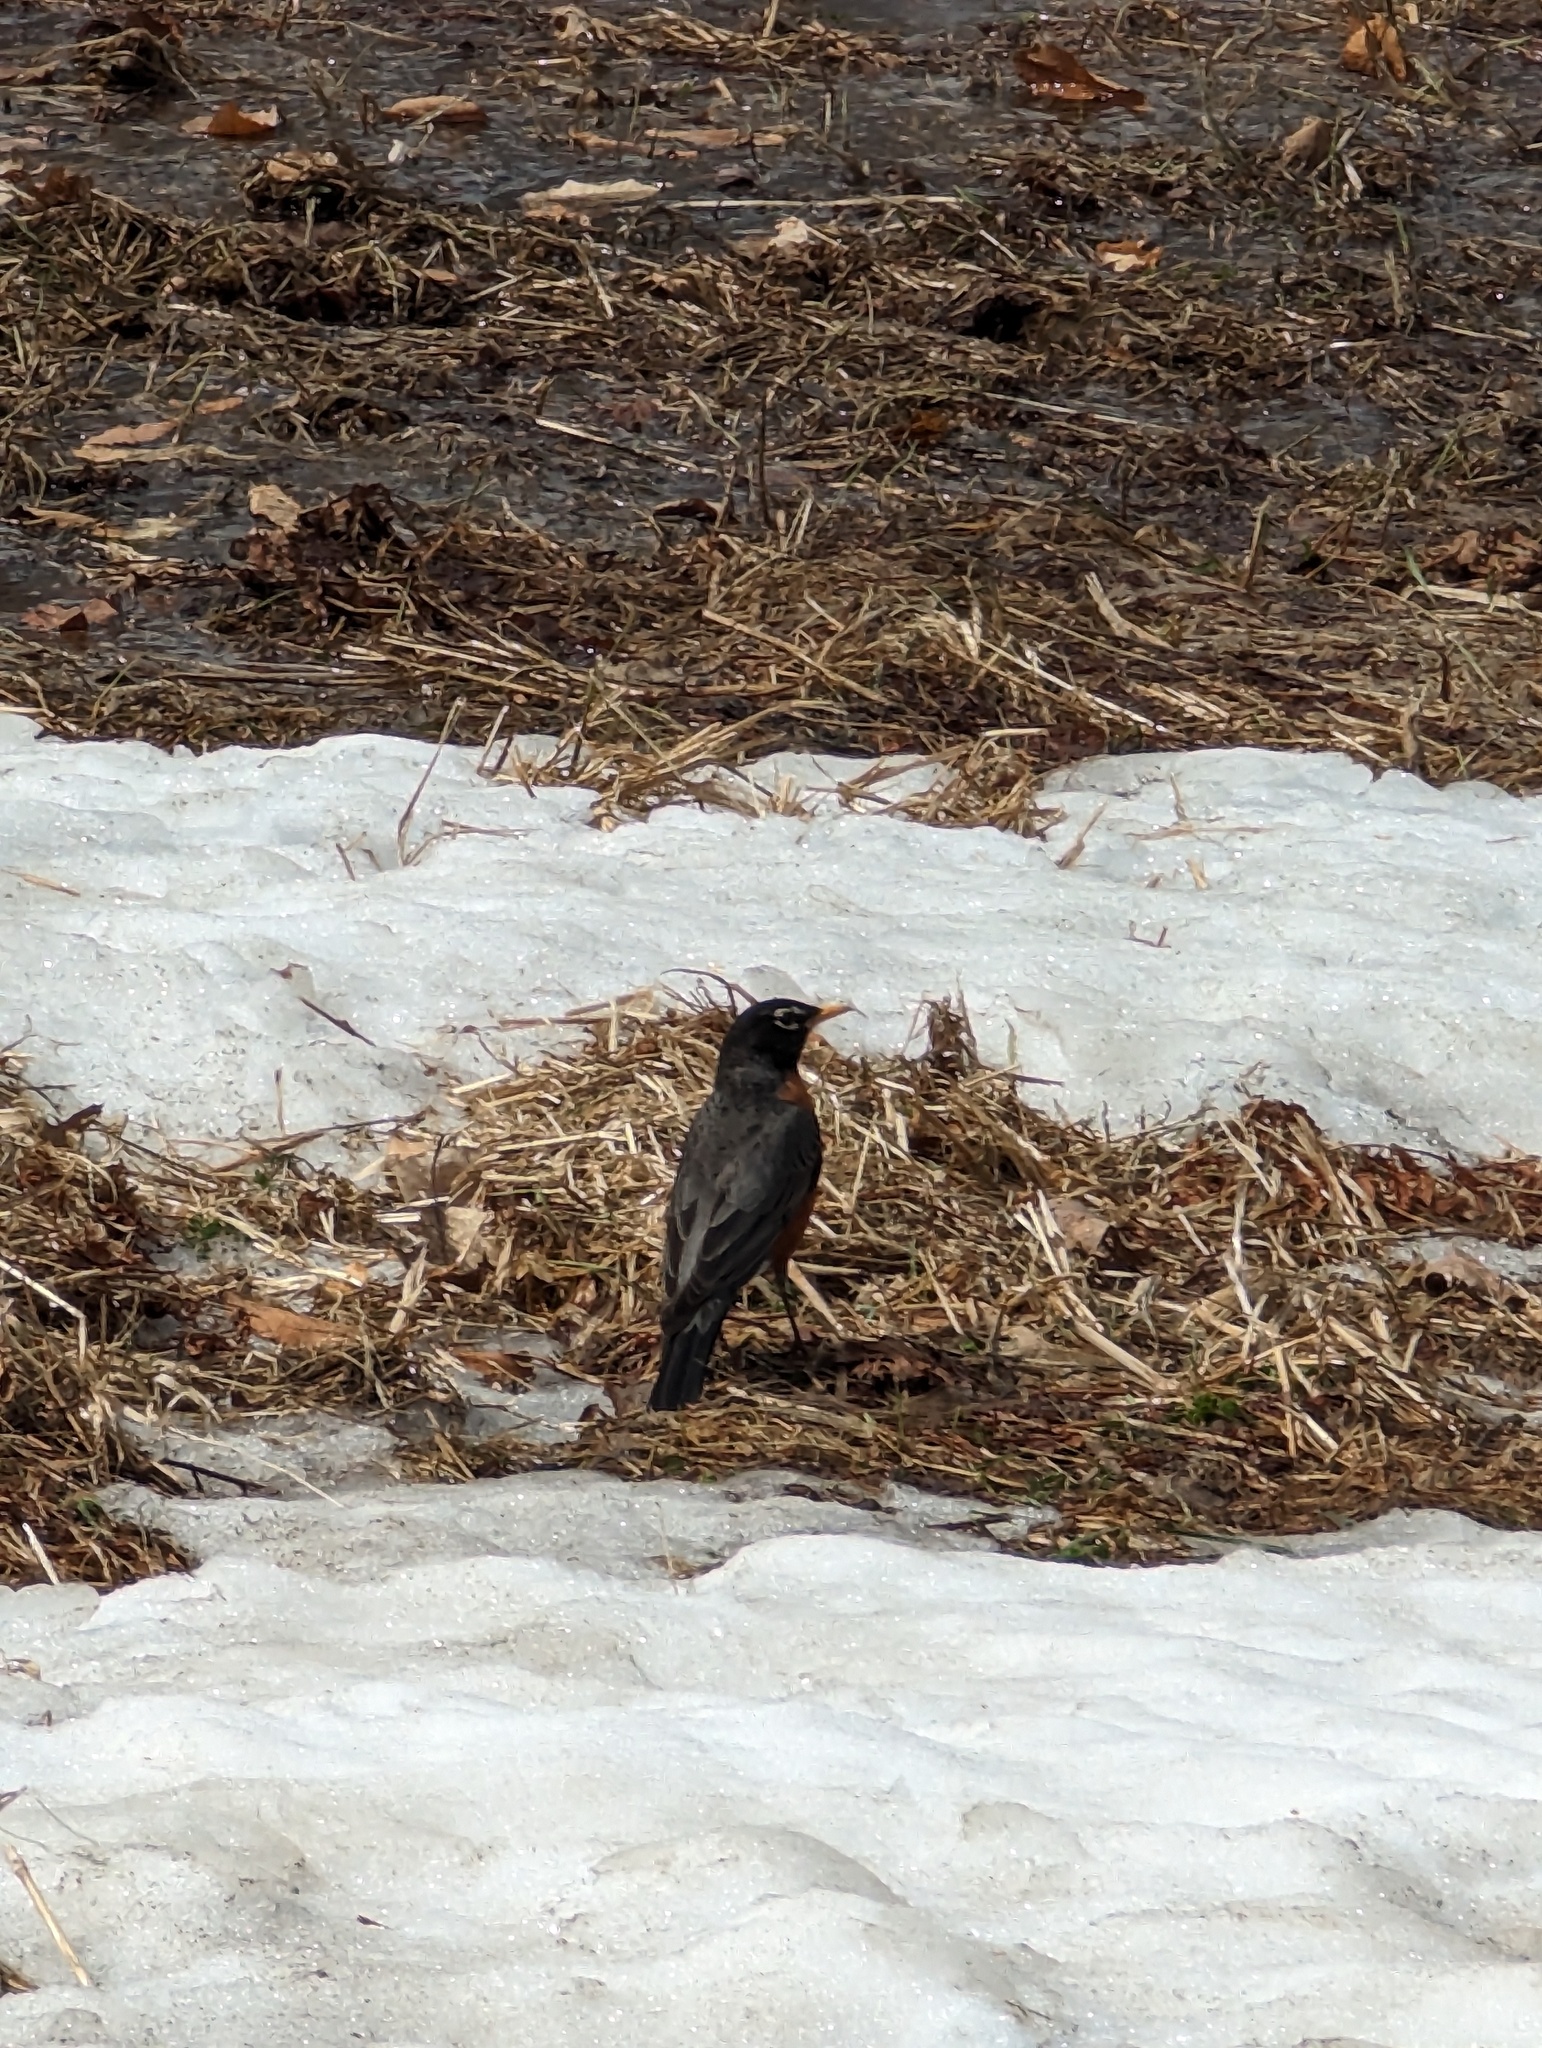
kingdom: Animalia
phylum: Chordata
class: Aves
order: Passeriformes
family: Turdidae
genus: Turdus
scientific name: Turdus migratorius
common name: American robin
